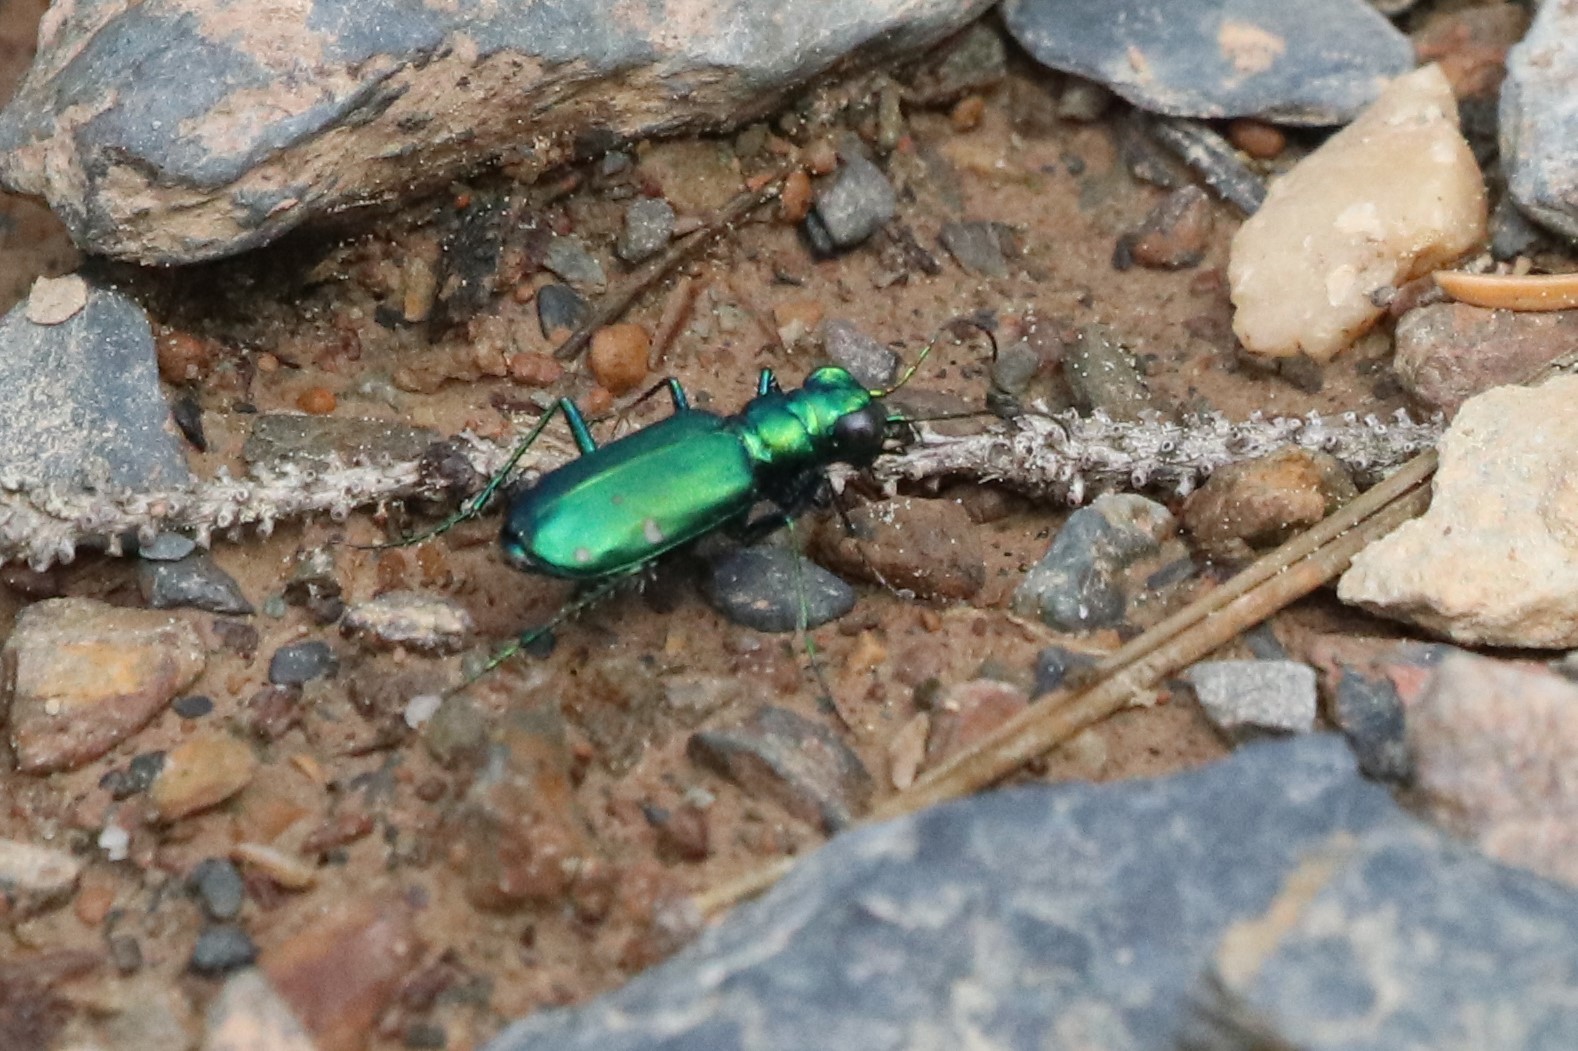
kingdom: Animalia
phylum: Arthropoda
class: Insecta
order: Coleoptera
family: Carabidae
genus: Cicindela
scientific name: Cicindela sexguttata
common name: Six-spotted tiger beetle
